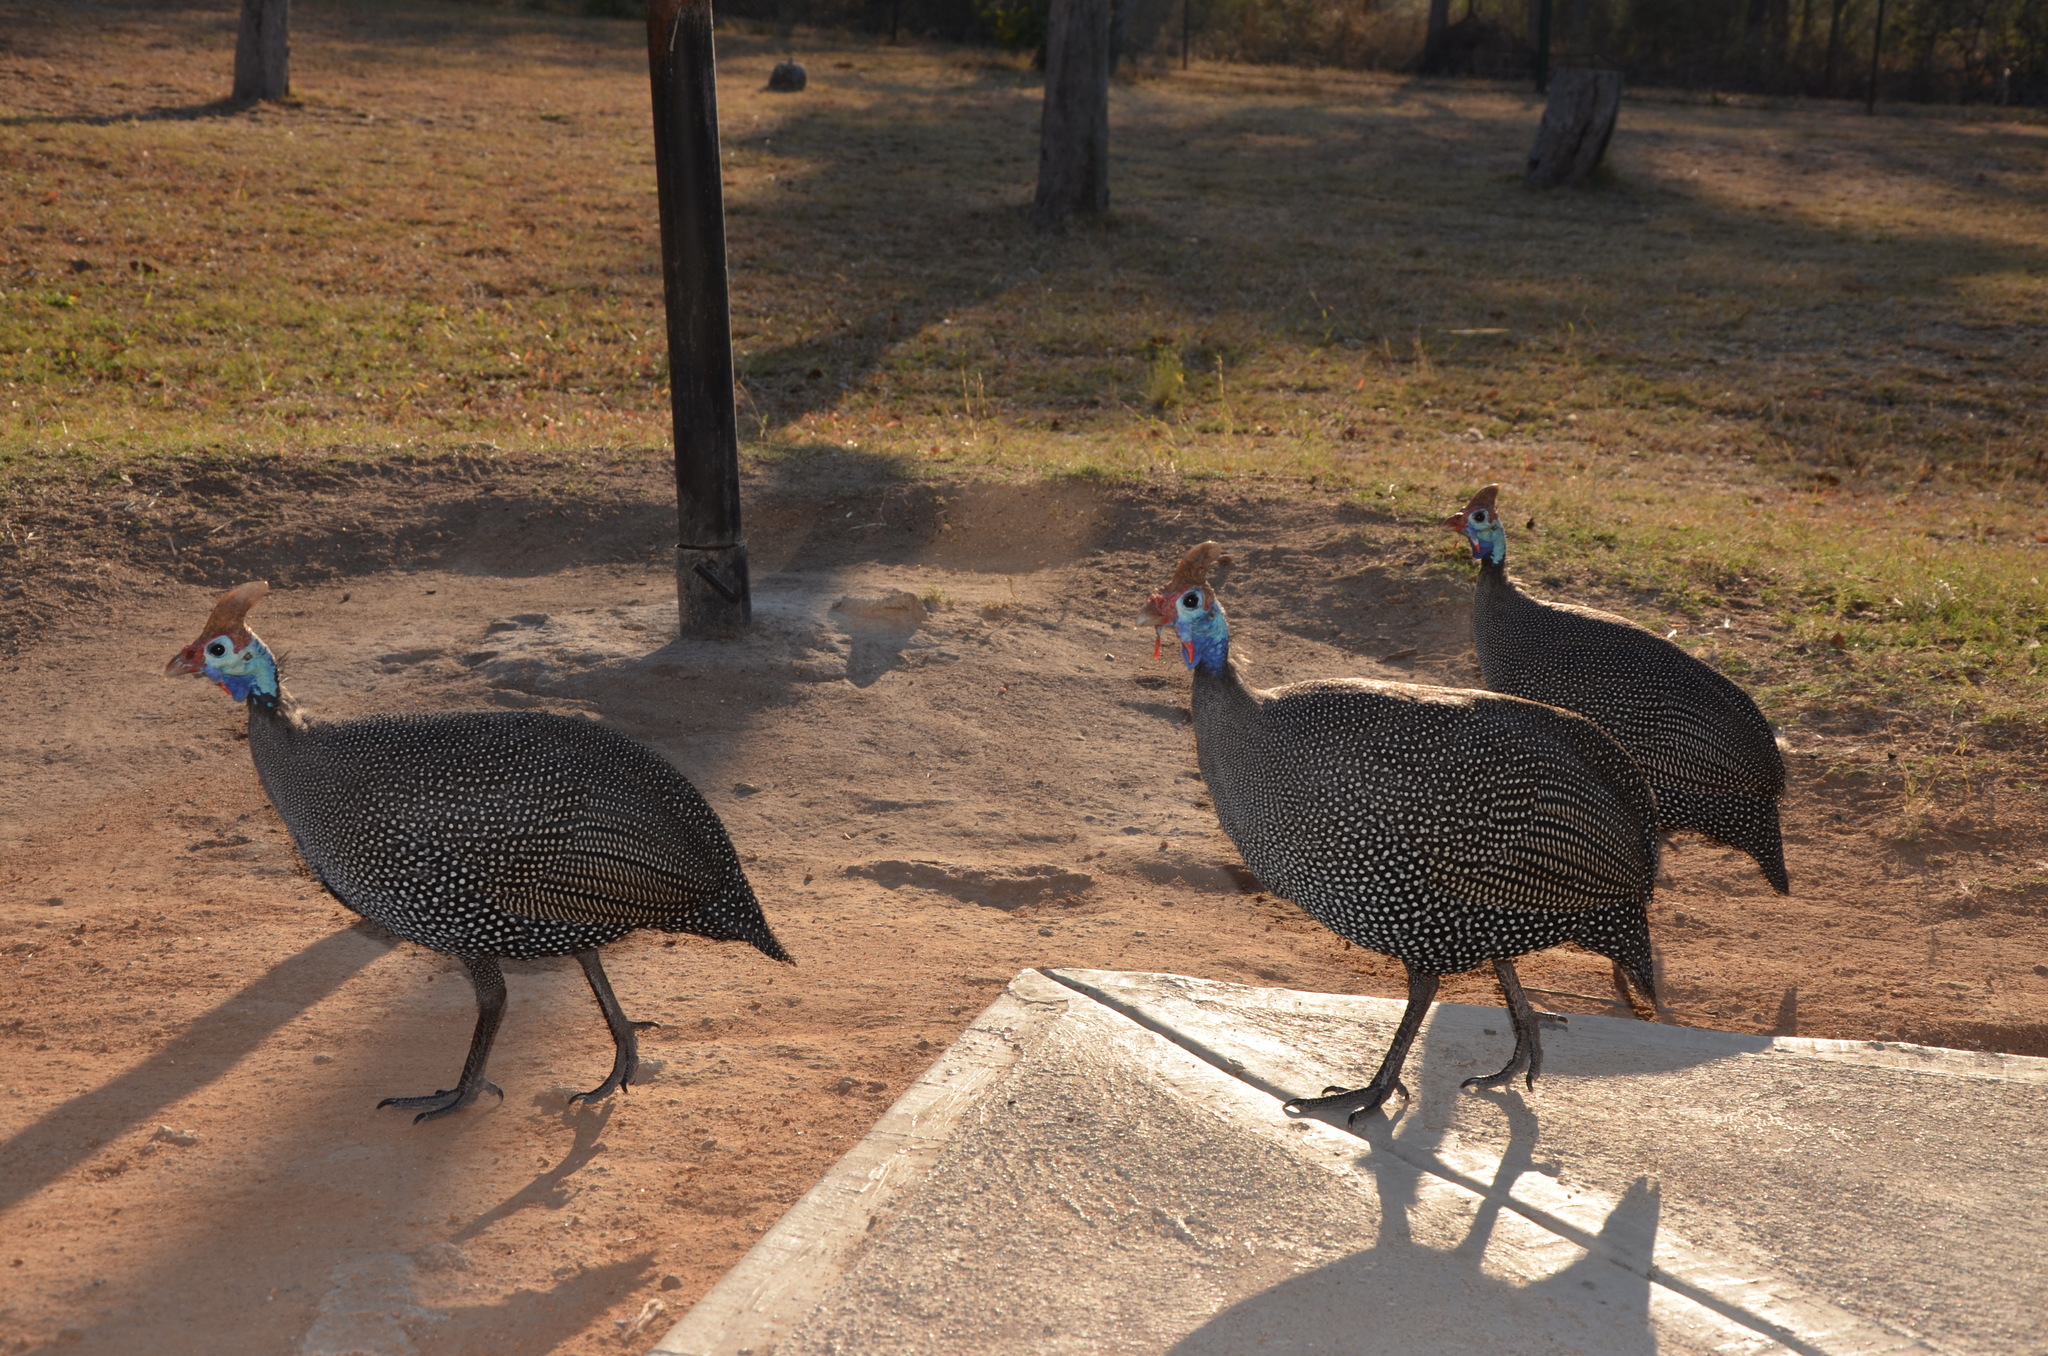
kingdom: Animalia
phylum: Chordata
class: Aves
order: Galliformes
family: Numididae
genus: Numida
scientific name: Numida meleagris
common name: Helmeted guineafowl
